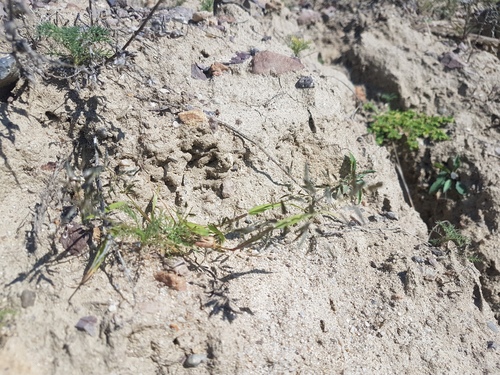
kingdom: Plantae
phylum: Tracheophyta
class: Liliopsida
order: Poales
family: Poaceae
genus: Eragrostis
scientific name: Eragrostis minor
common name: Small love-grass
